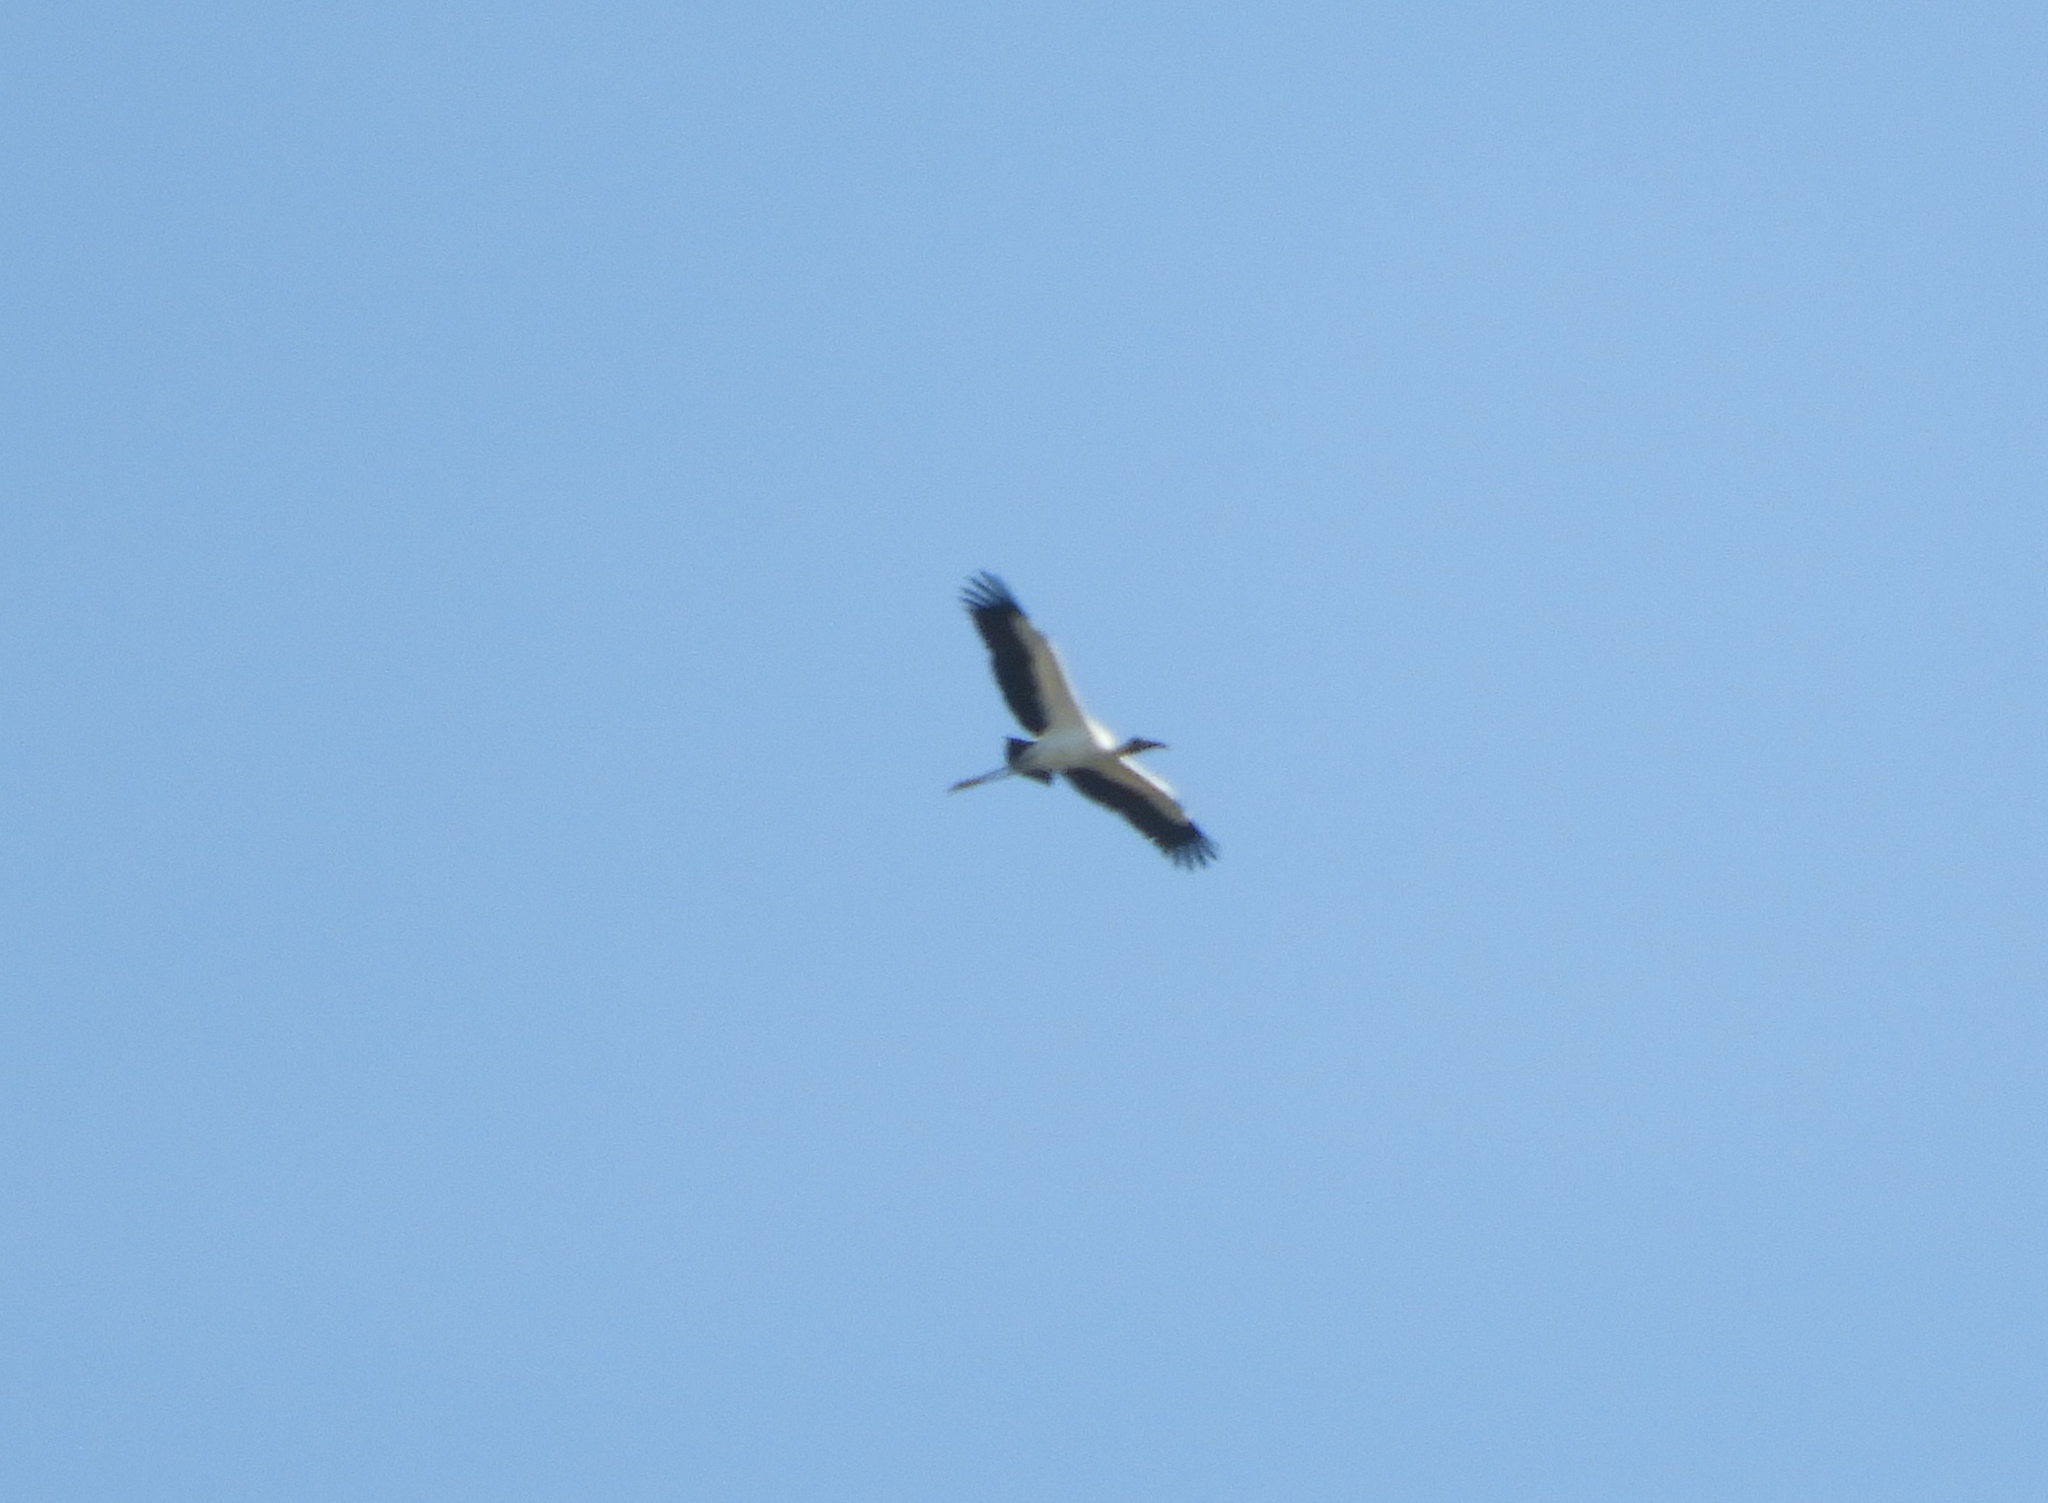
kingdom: Animalia
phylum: Chordata
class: Aves
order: Ciconiiformes
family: Ciconiidae
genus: Mycteria
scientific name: Mycteria americana
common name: Wood stork
